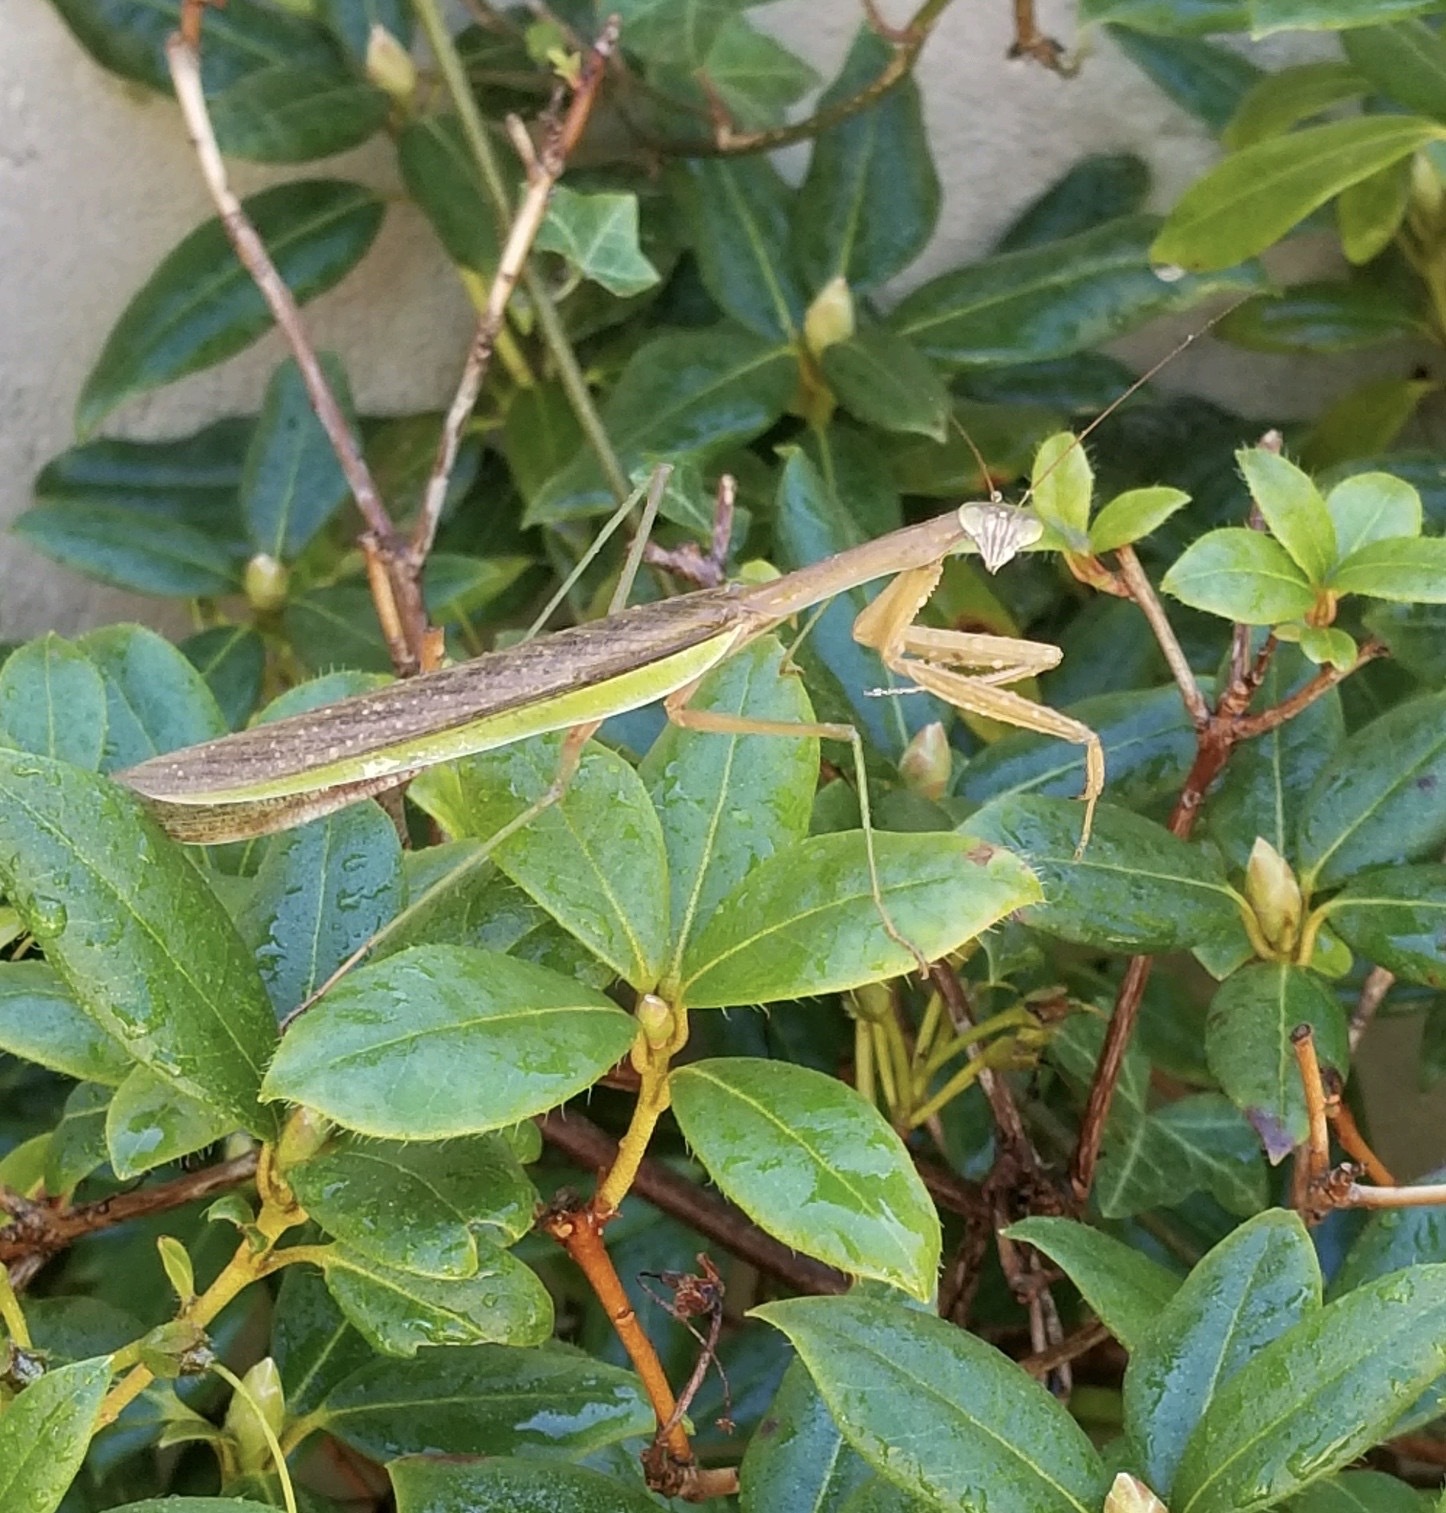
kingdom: Animalia
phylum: Arthropoda
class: Insecta
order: Mantodea
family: Mantidae
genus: Tenodera
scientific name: Tenodera sinensis
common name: Chinese mantis
